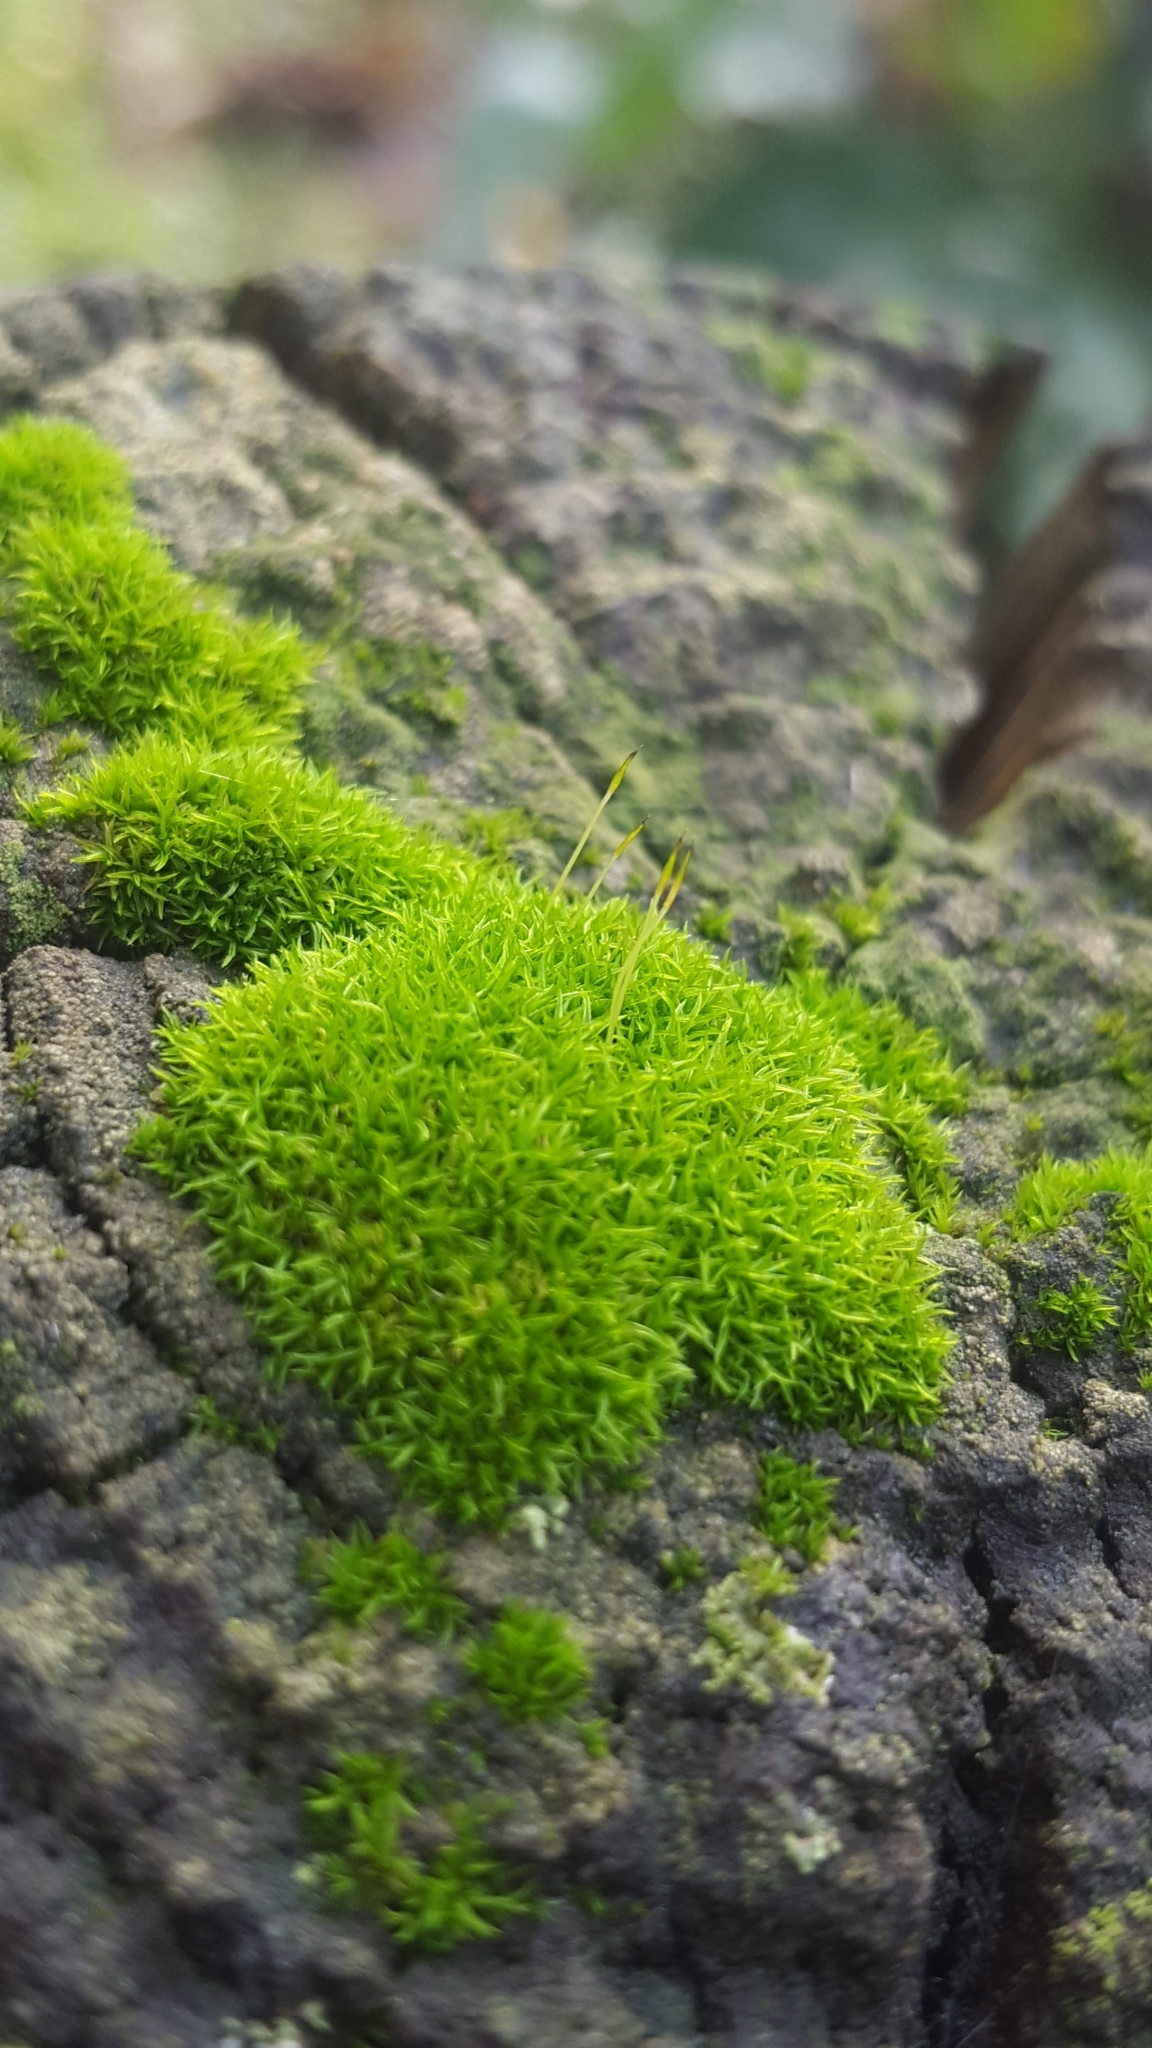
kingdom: Plantae
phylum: Bryophyta
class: Bryopsida
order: Dicranales
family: Rhabdoweisiaceae
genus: Dicranoweisia
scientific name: Dicranoweisia cirrata
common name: Common pincushion
